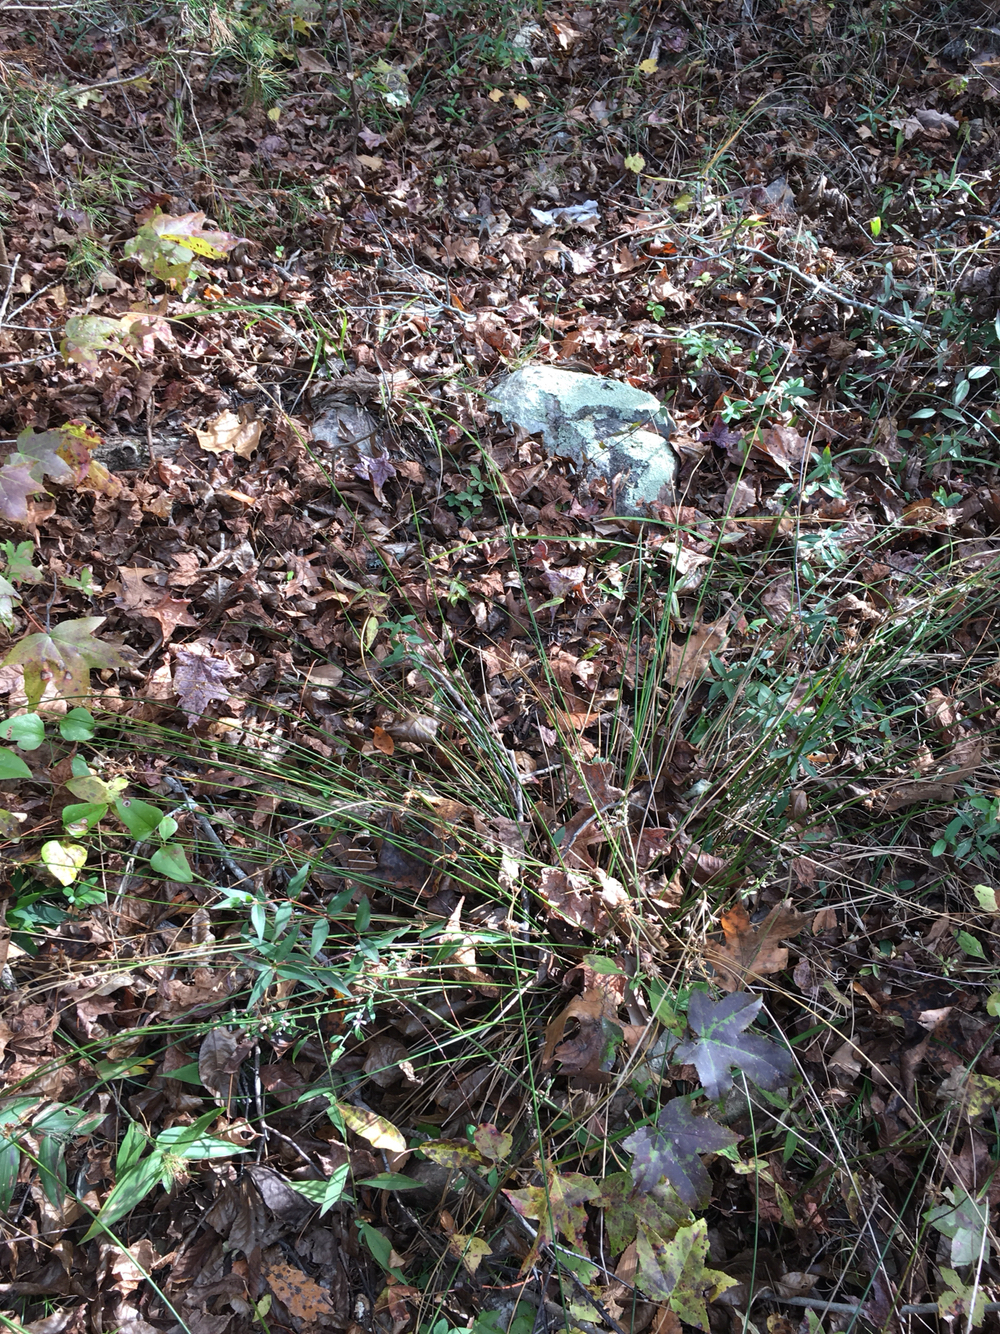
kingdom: Plantae
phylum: Tracheophyta
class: Liliopsida
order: Poales
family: Juncaceae
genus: Juncus
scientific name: Juncus coriaceus
